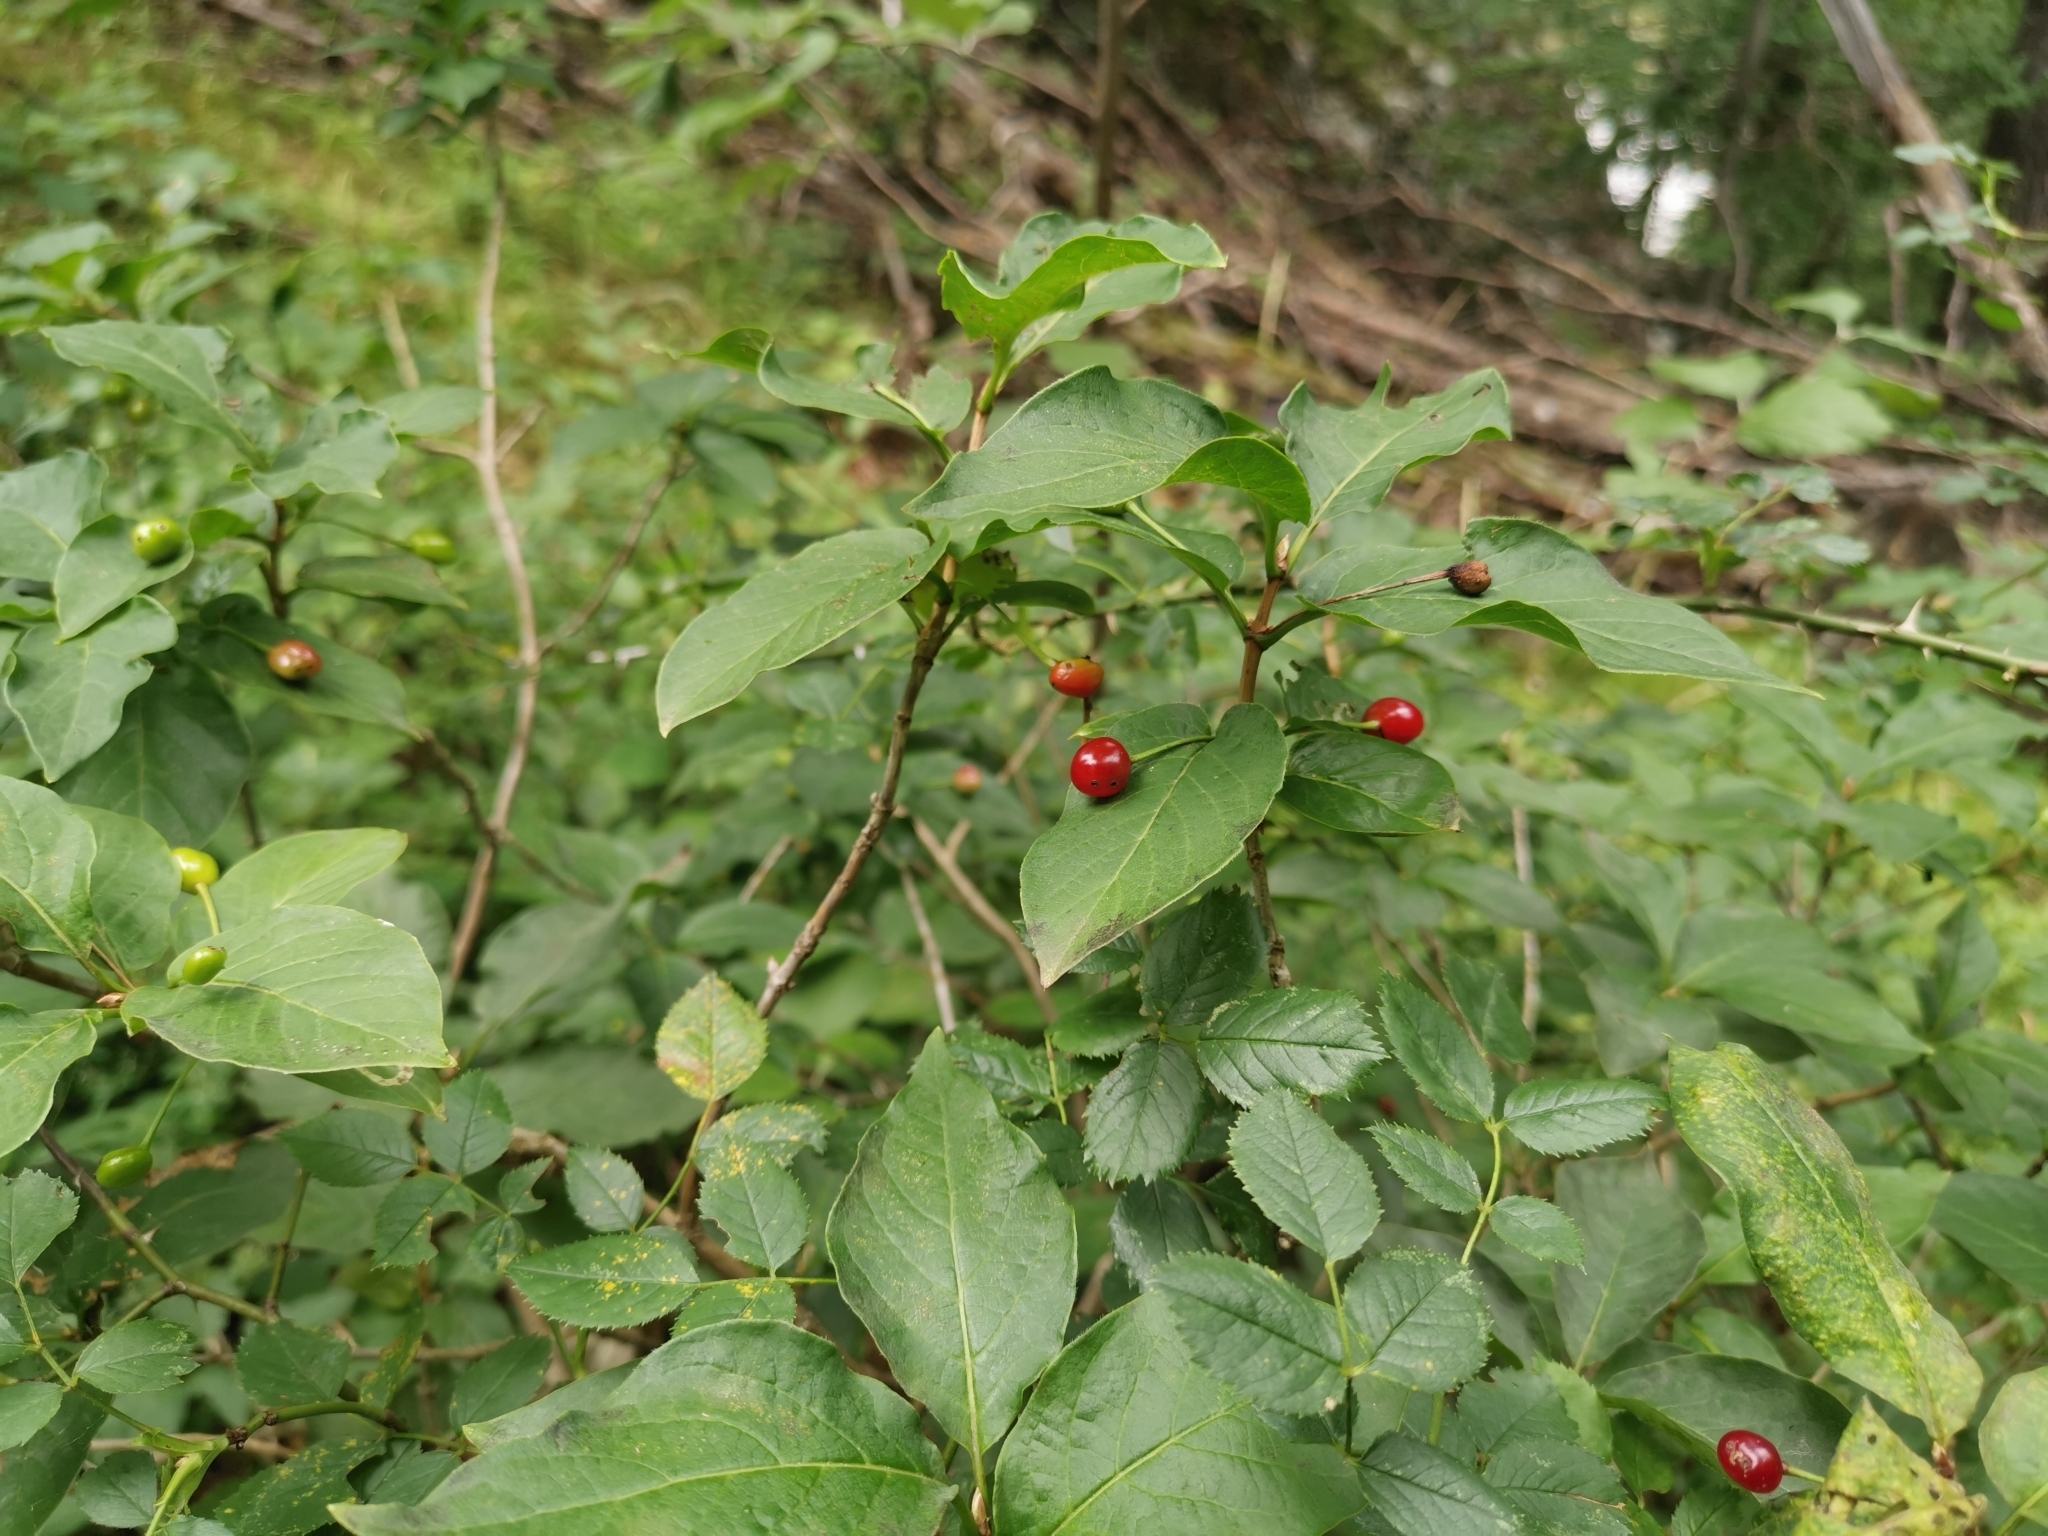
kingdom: Plantae
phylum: Tracheophyta
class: Magnoliopsida
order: Dipsacales
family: Caprifoliaceae
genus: Lonicera
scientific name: Lonicera alpigena
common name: Alpine honeysuckle
